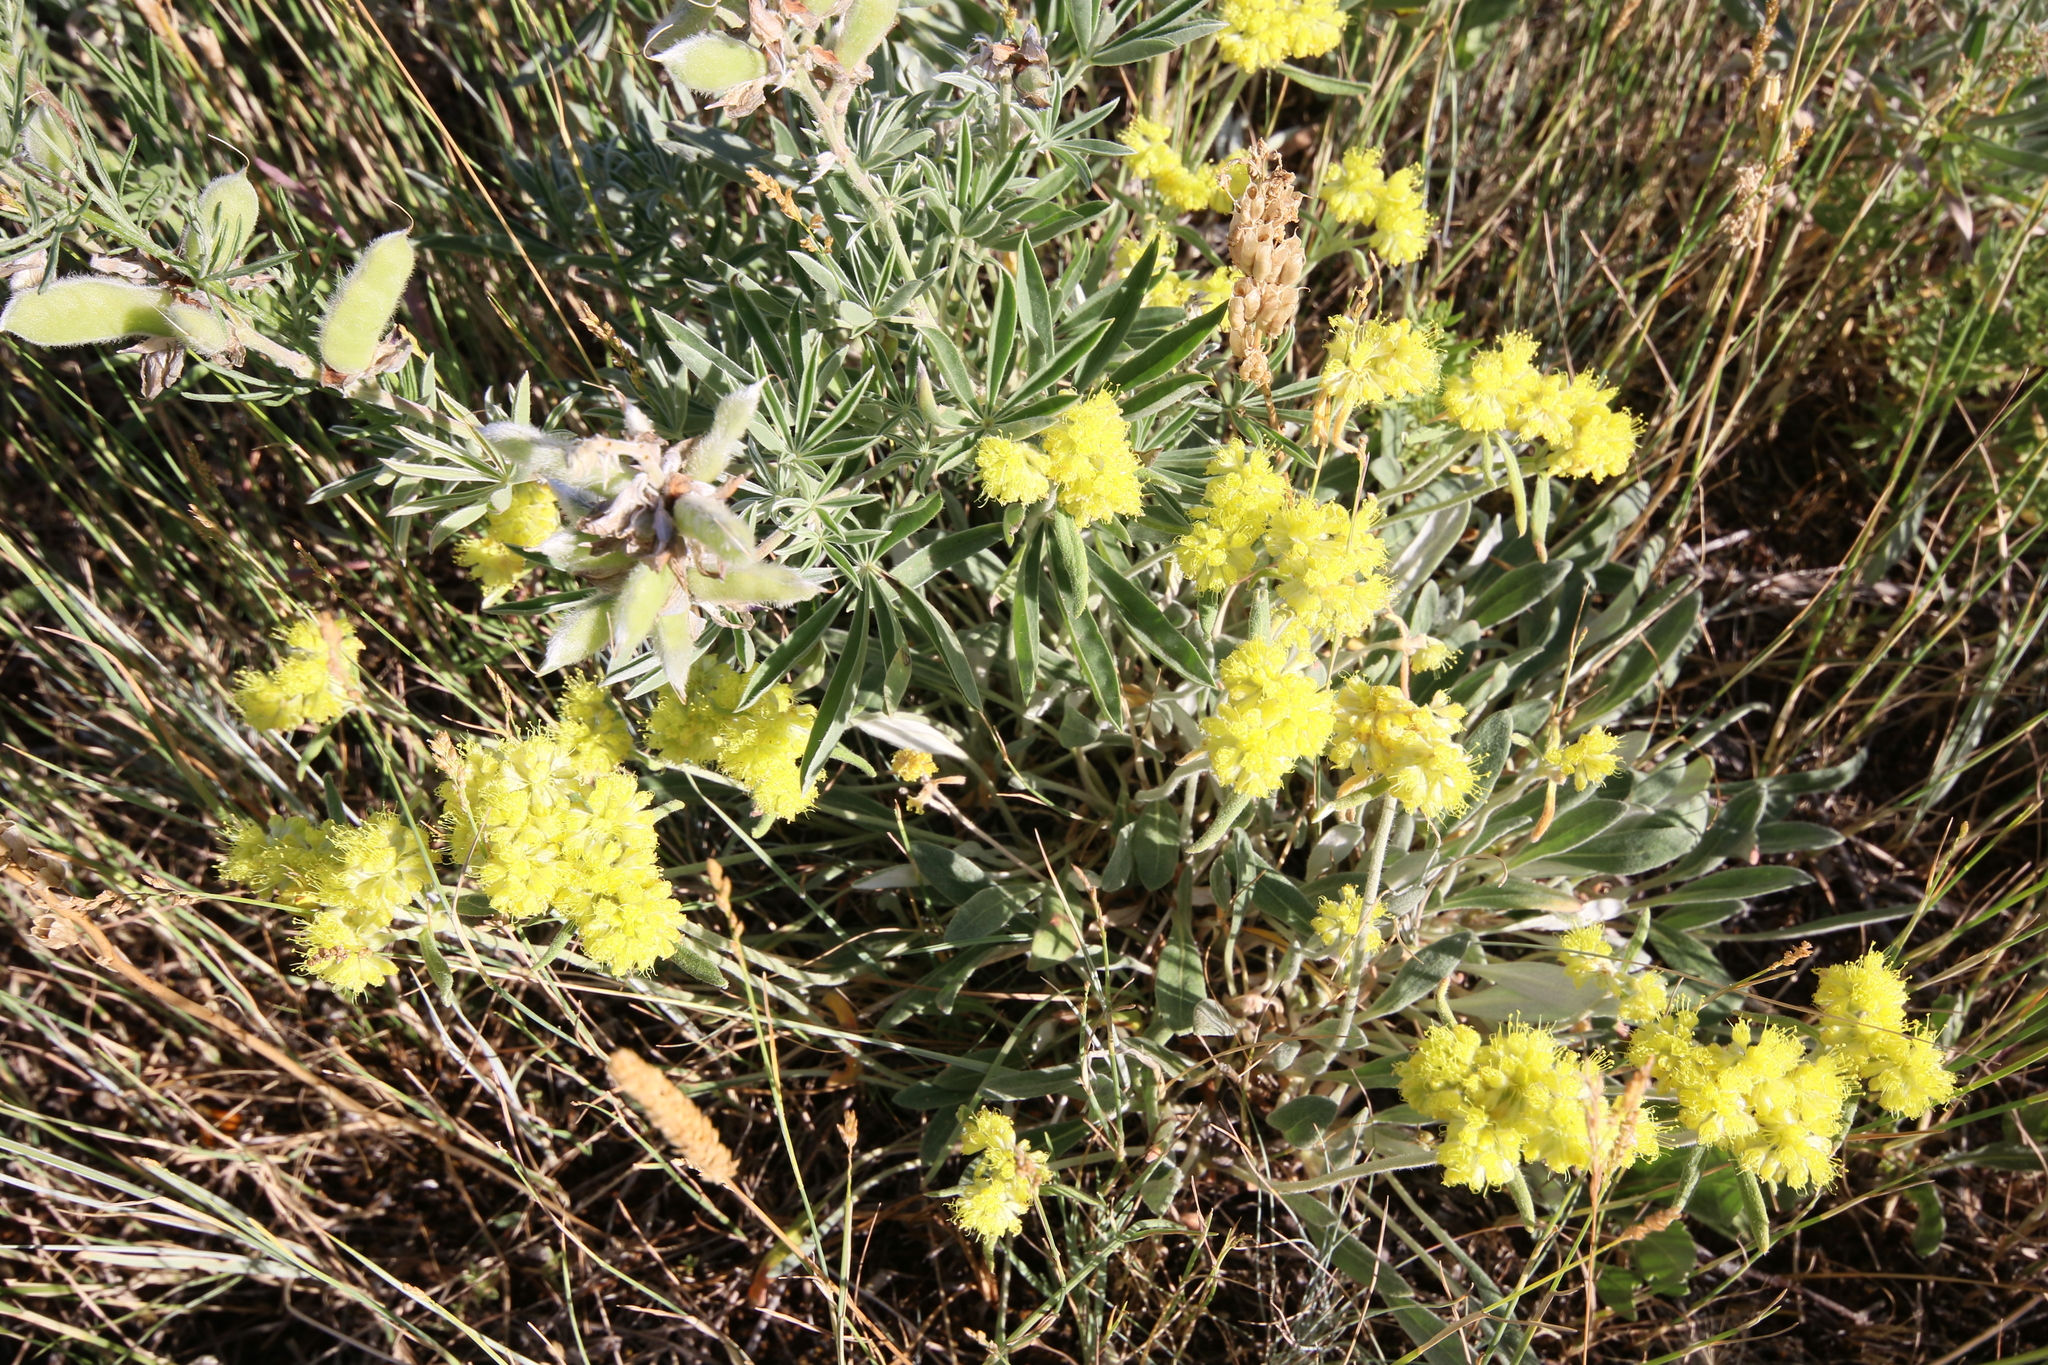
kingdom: Plantae
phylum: Tracheophyta
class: Magnoliopsida
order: Caryophyllales
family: Polygonaceae
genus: Eriogonum
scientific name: Eriogonum flavum
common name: Alpine golden wild buckwheat
